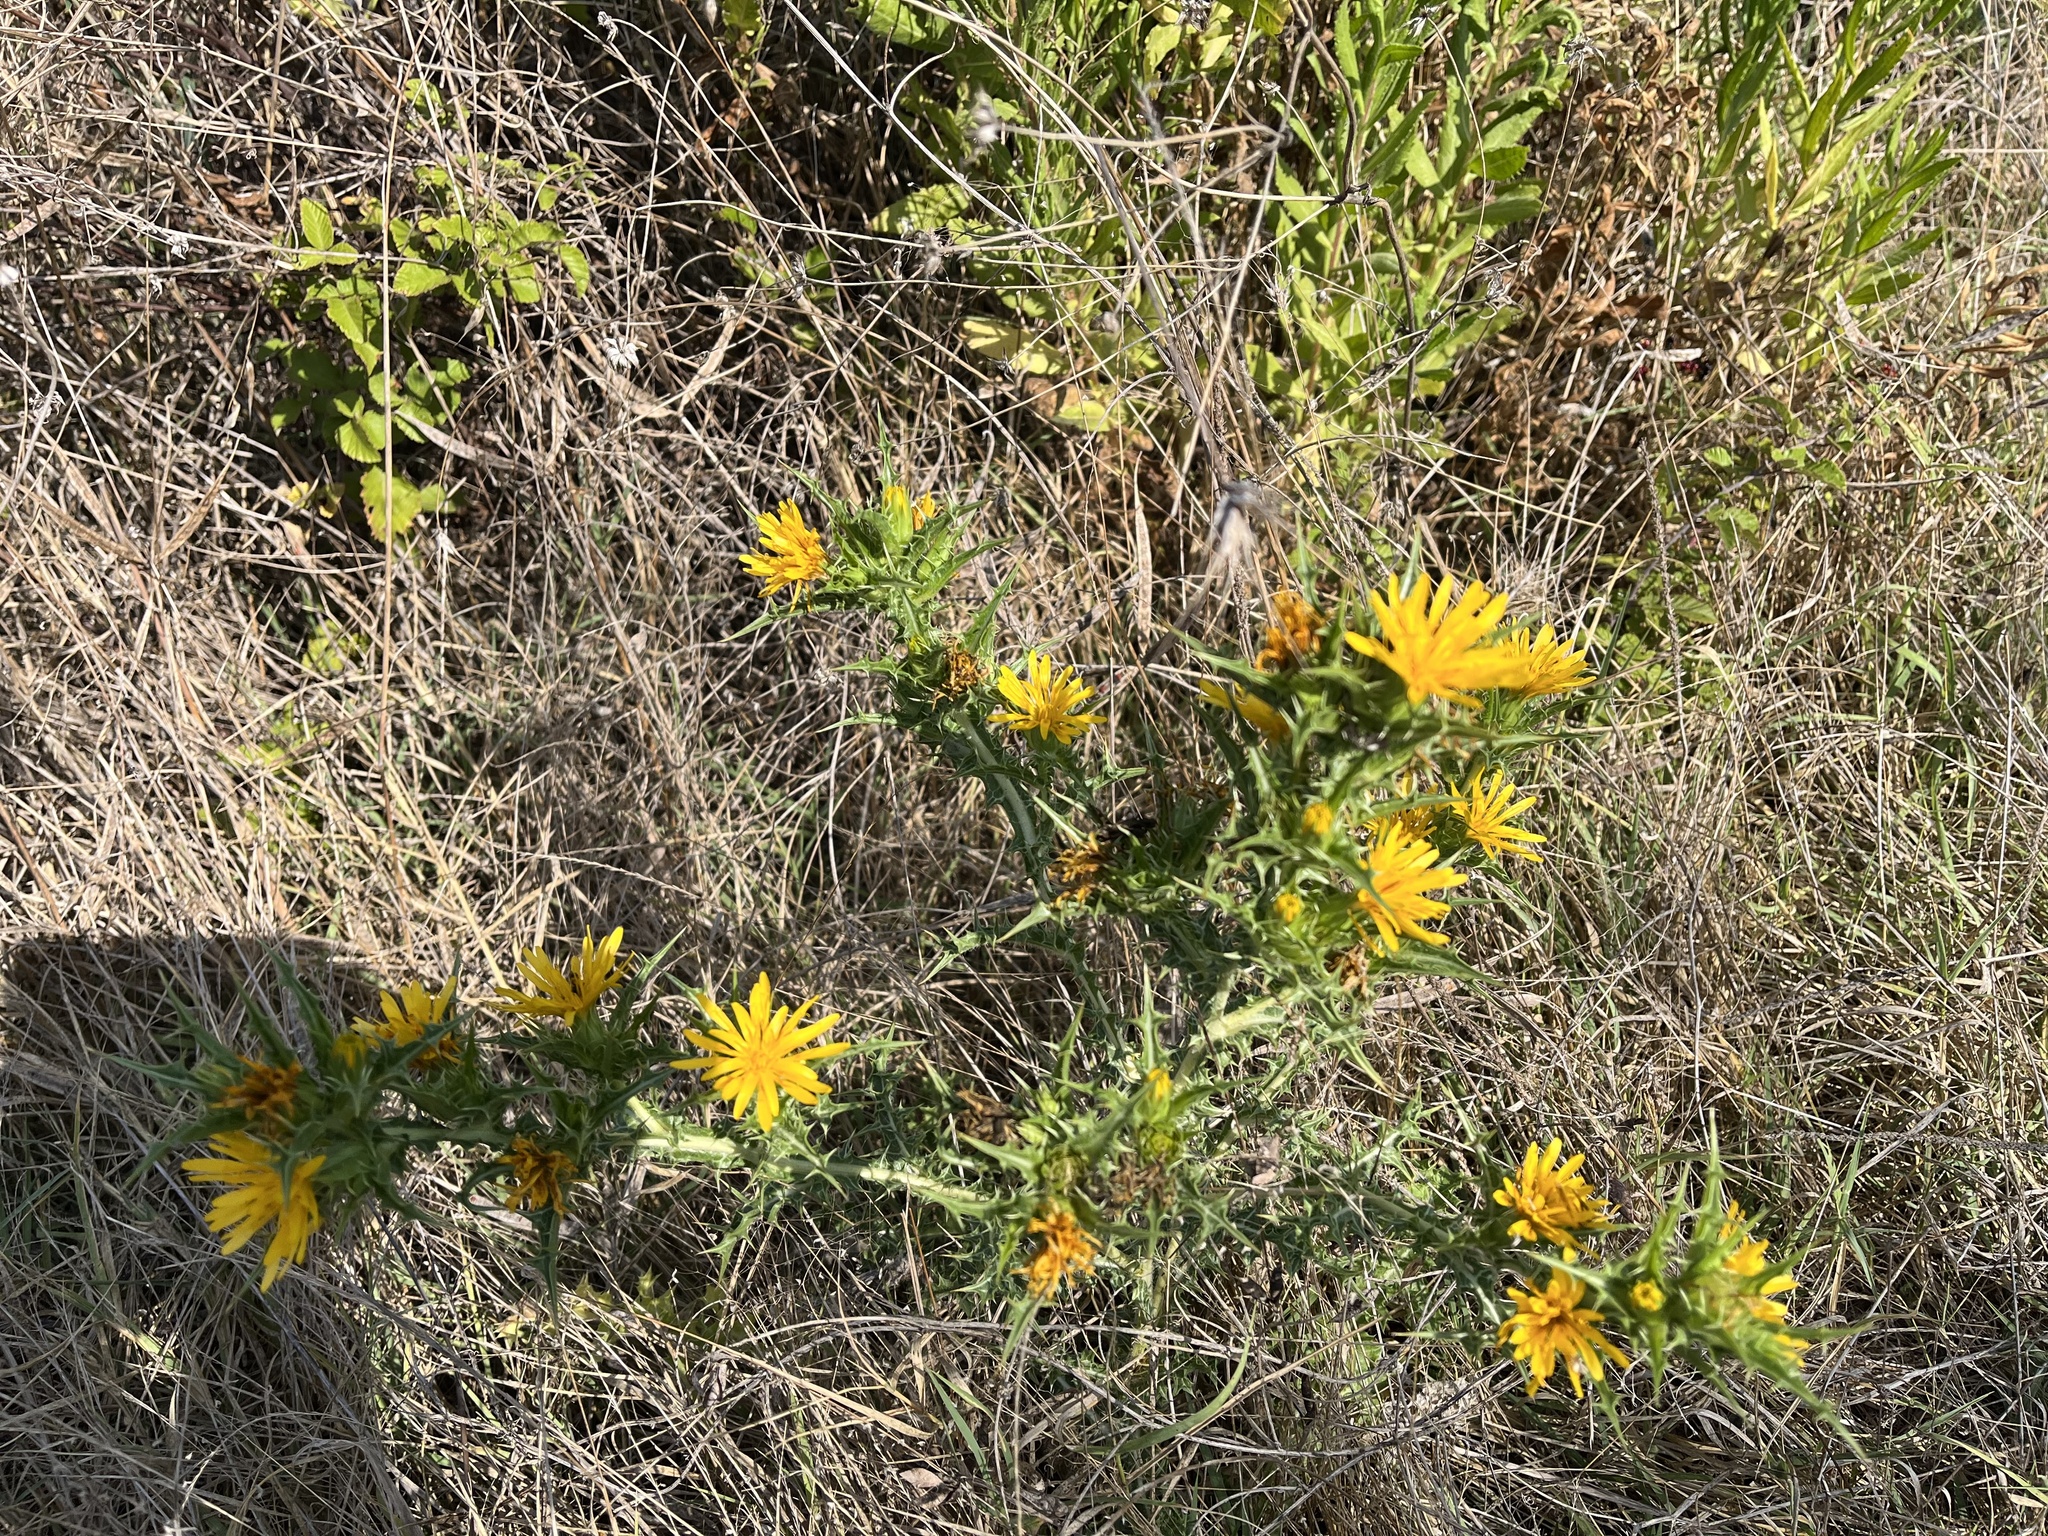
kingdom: Plantae
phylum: Tracheophyta
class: Magnoliopsida
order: Asterales
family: Asteraceae
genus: Scolymus
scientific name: Scolymus hispanicus
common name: Golden thistle
